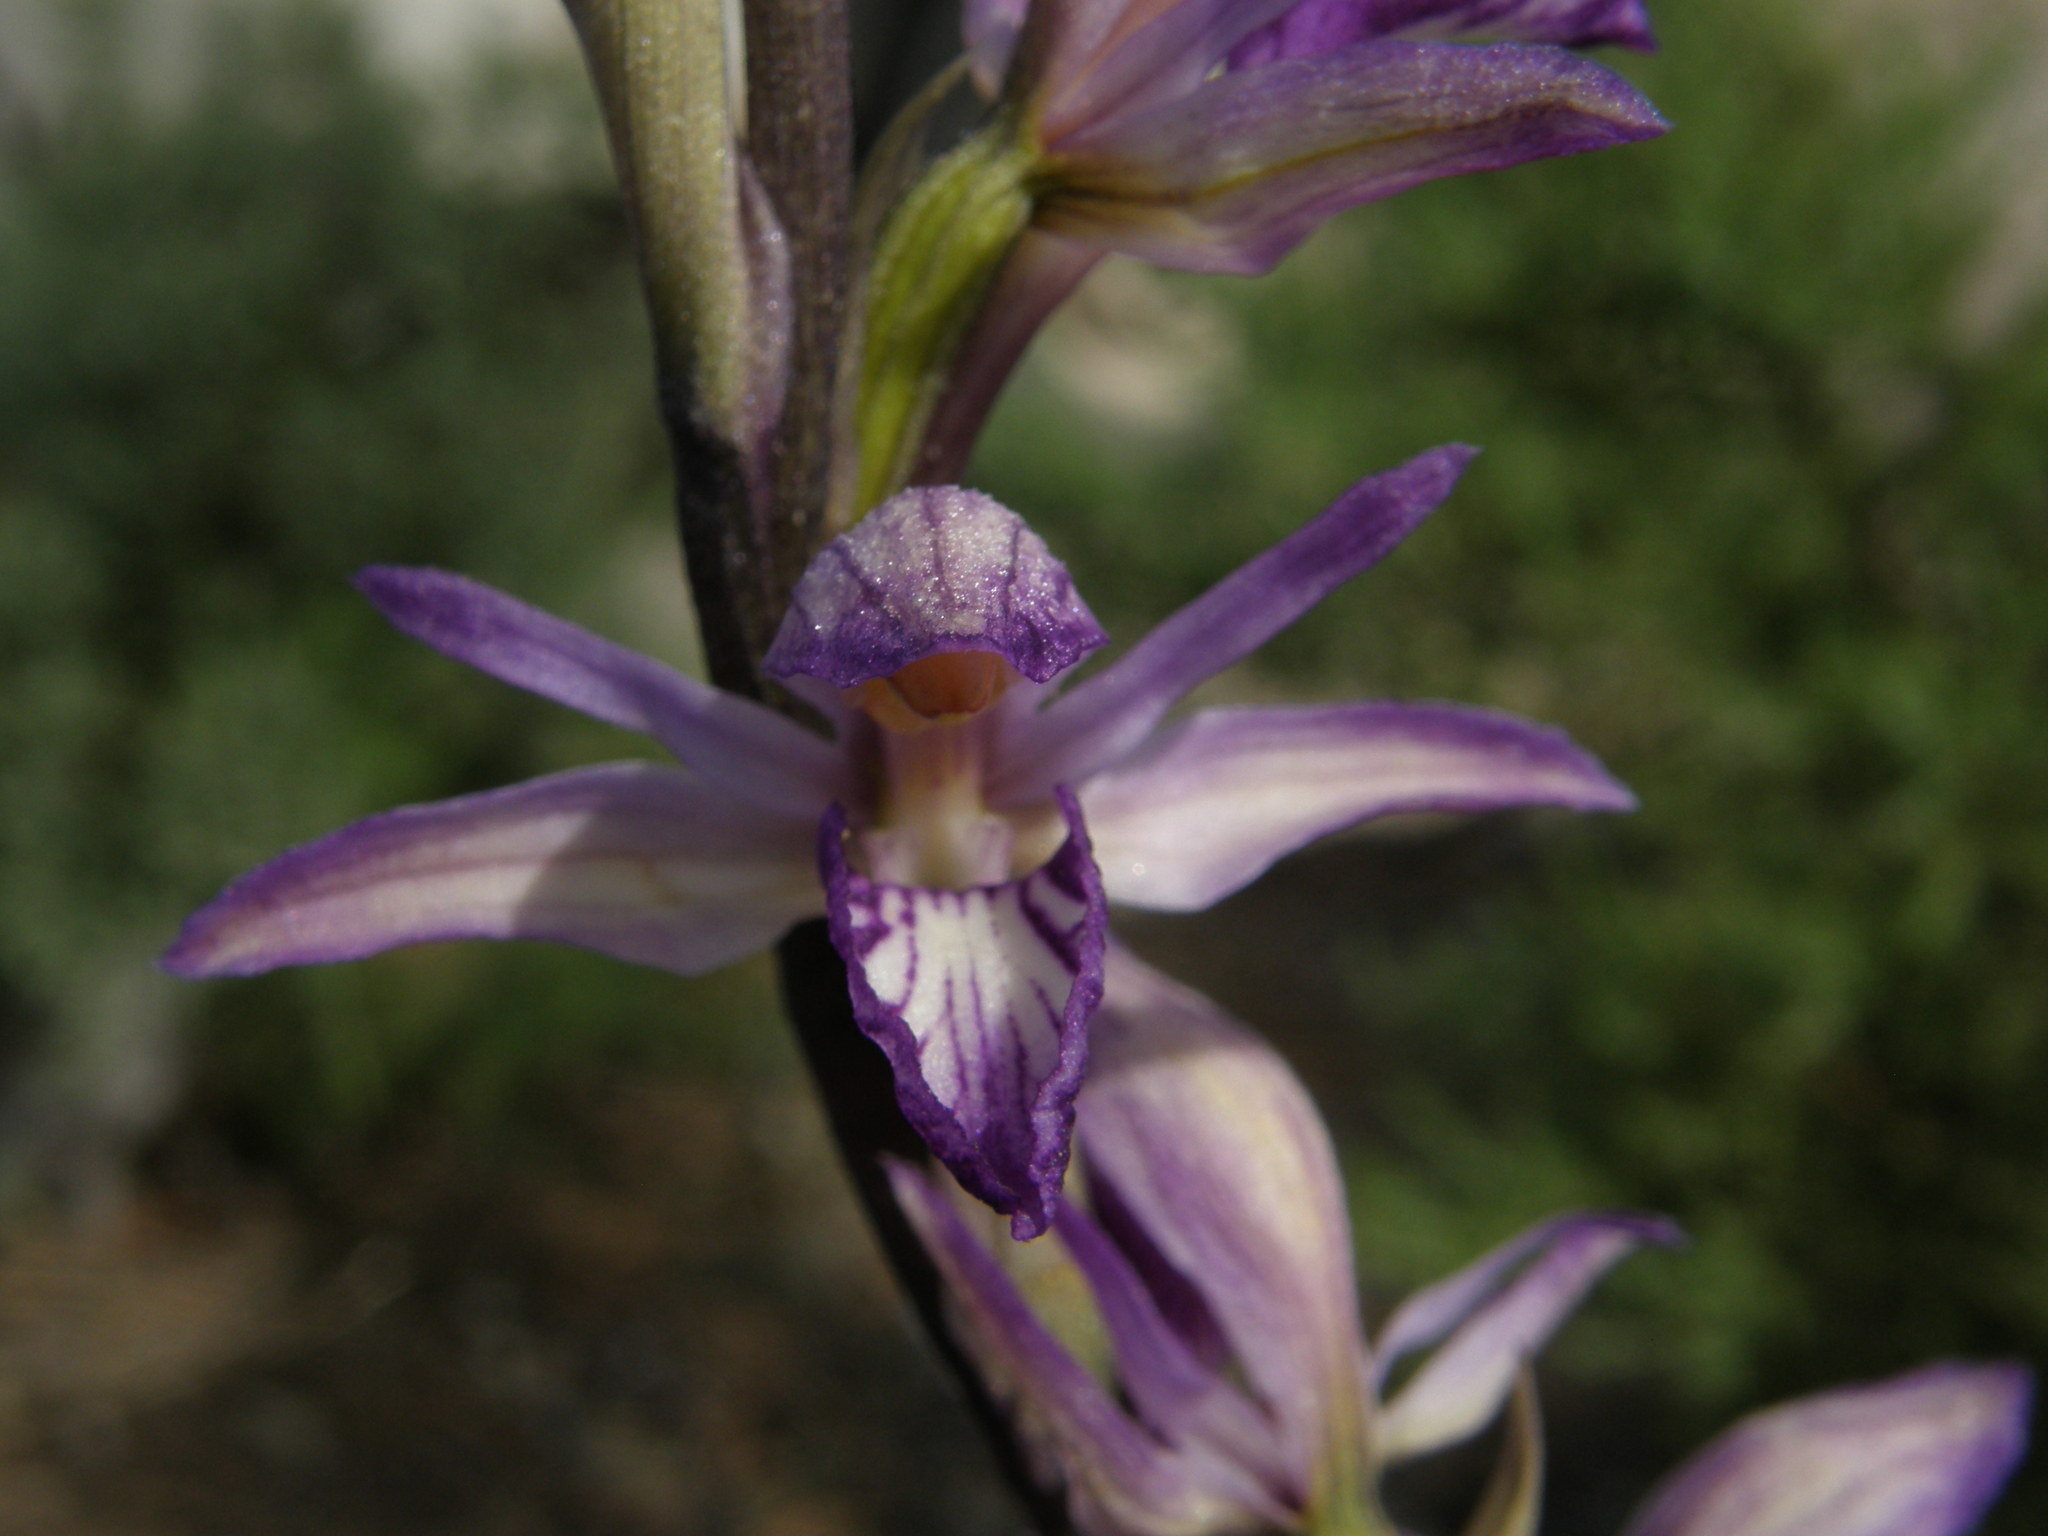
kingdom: Plantae
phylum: Tracheophyta
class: Liliopsida
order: Asparagales
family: Orchidaceae
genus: Limodorum
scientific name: Limodorum abortivum
